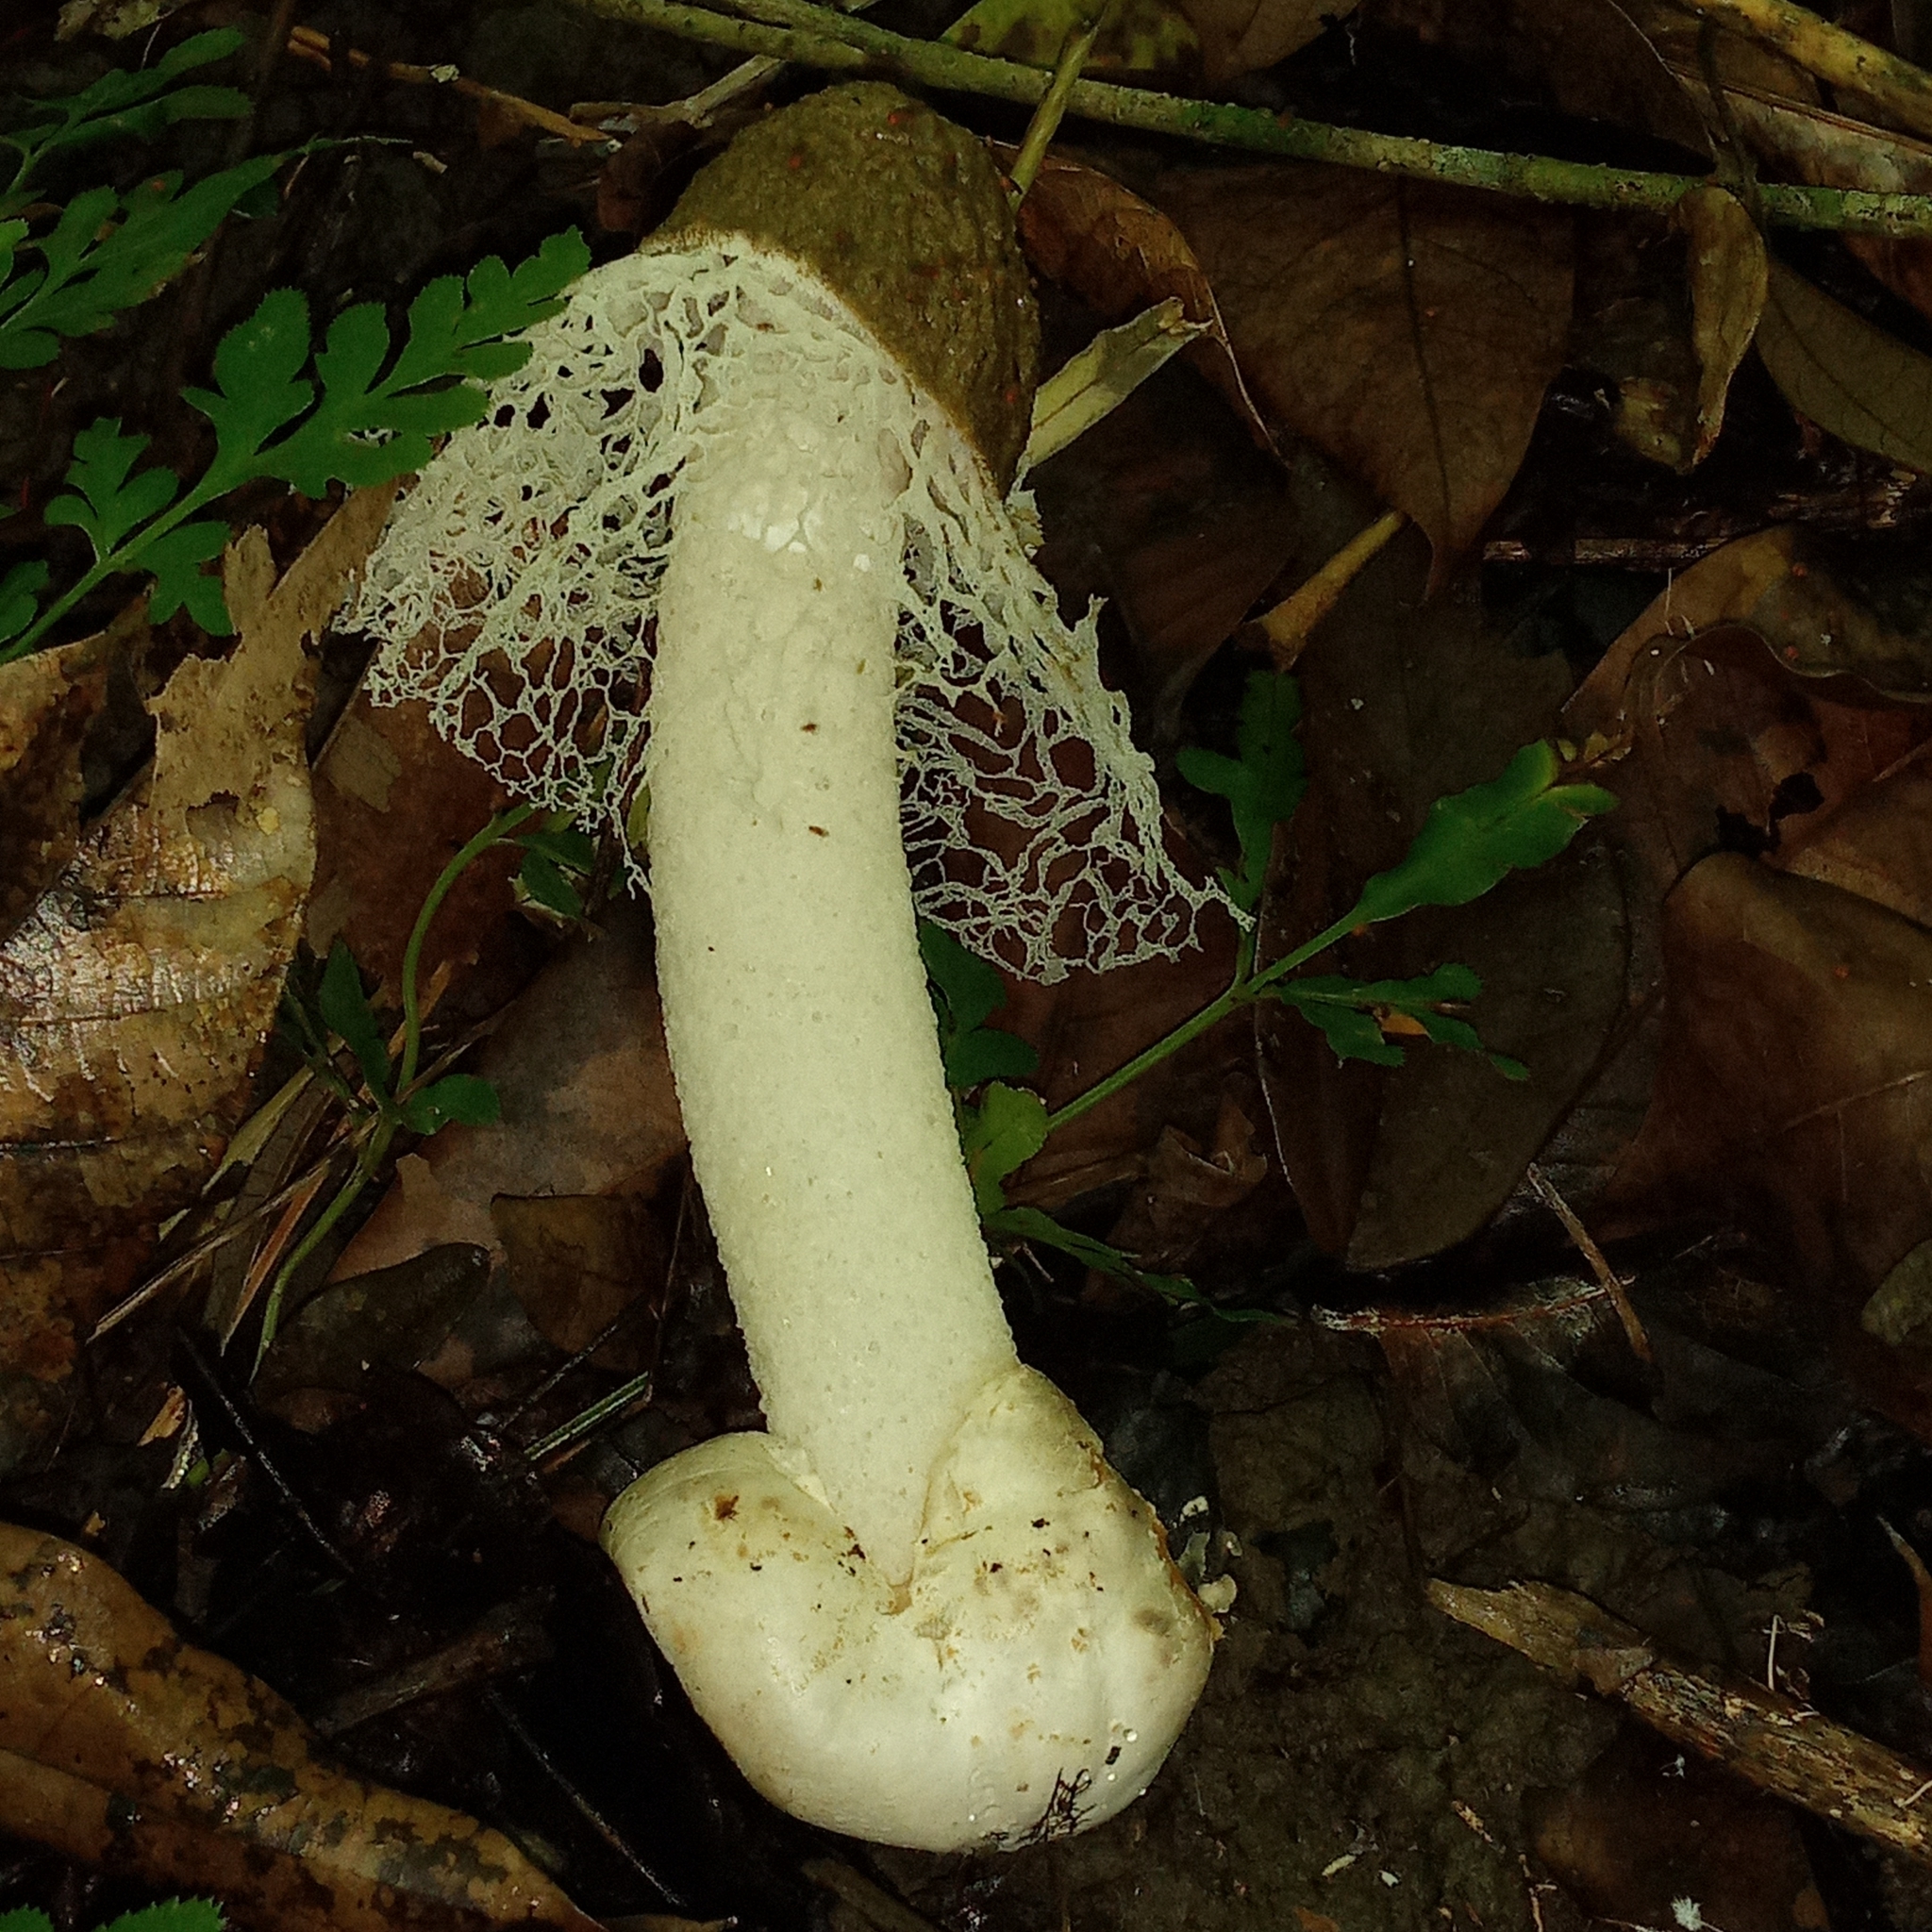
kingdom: Fungi
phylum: Basidiomycota
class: Agaricomycetes
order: Phallales
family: Phallaceae
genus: Phallus
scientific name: Phallus merulinus
